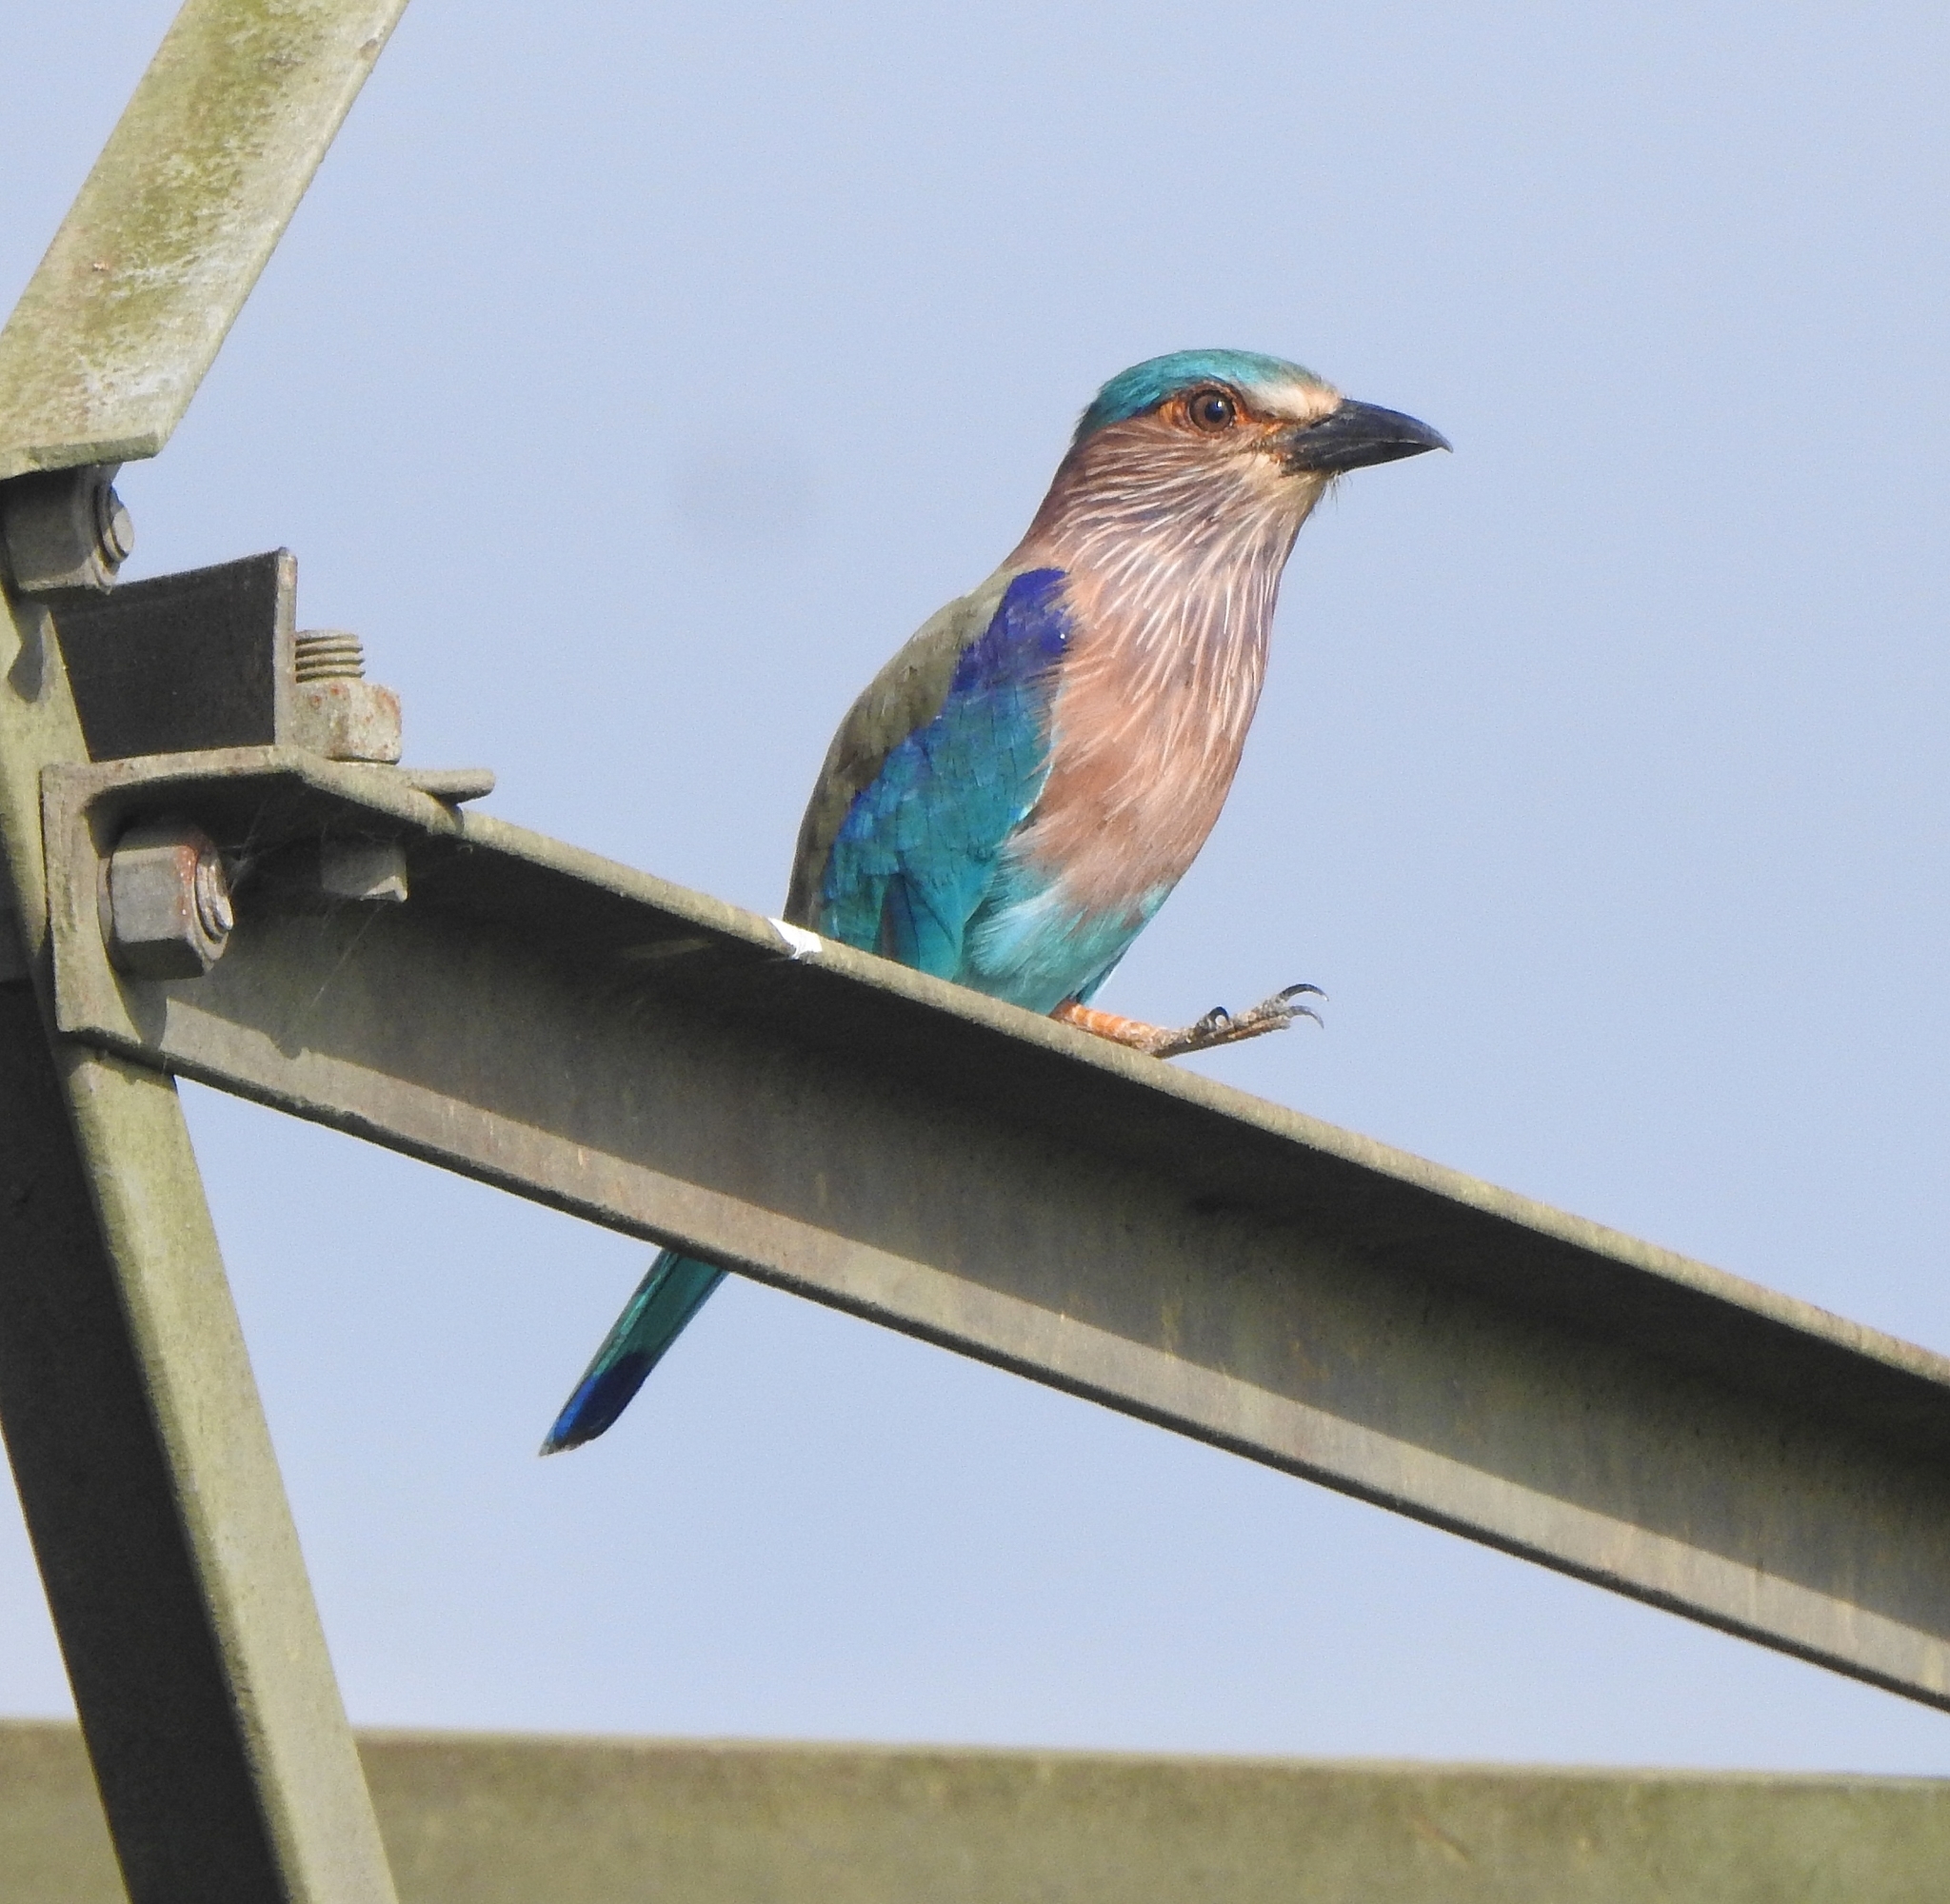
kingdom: Animalia
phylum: Chordata
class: Aves
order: Coraciiformes
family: Coraciidae
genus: Coracias
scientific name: Coracias benghalensis
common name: Indian roller
